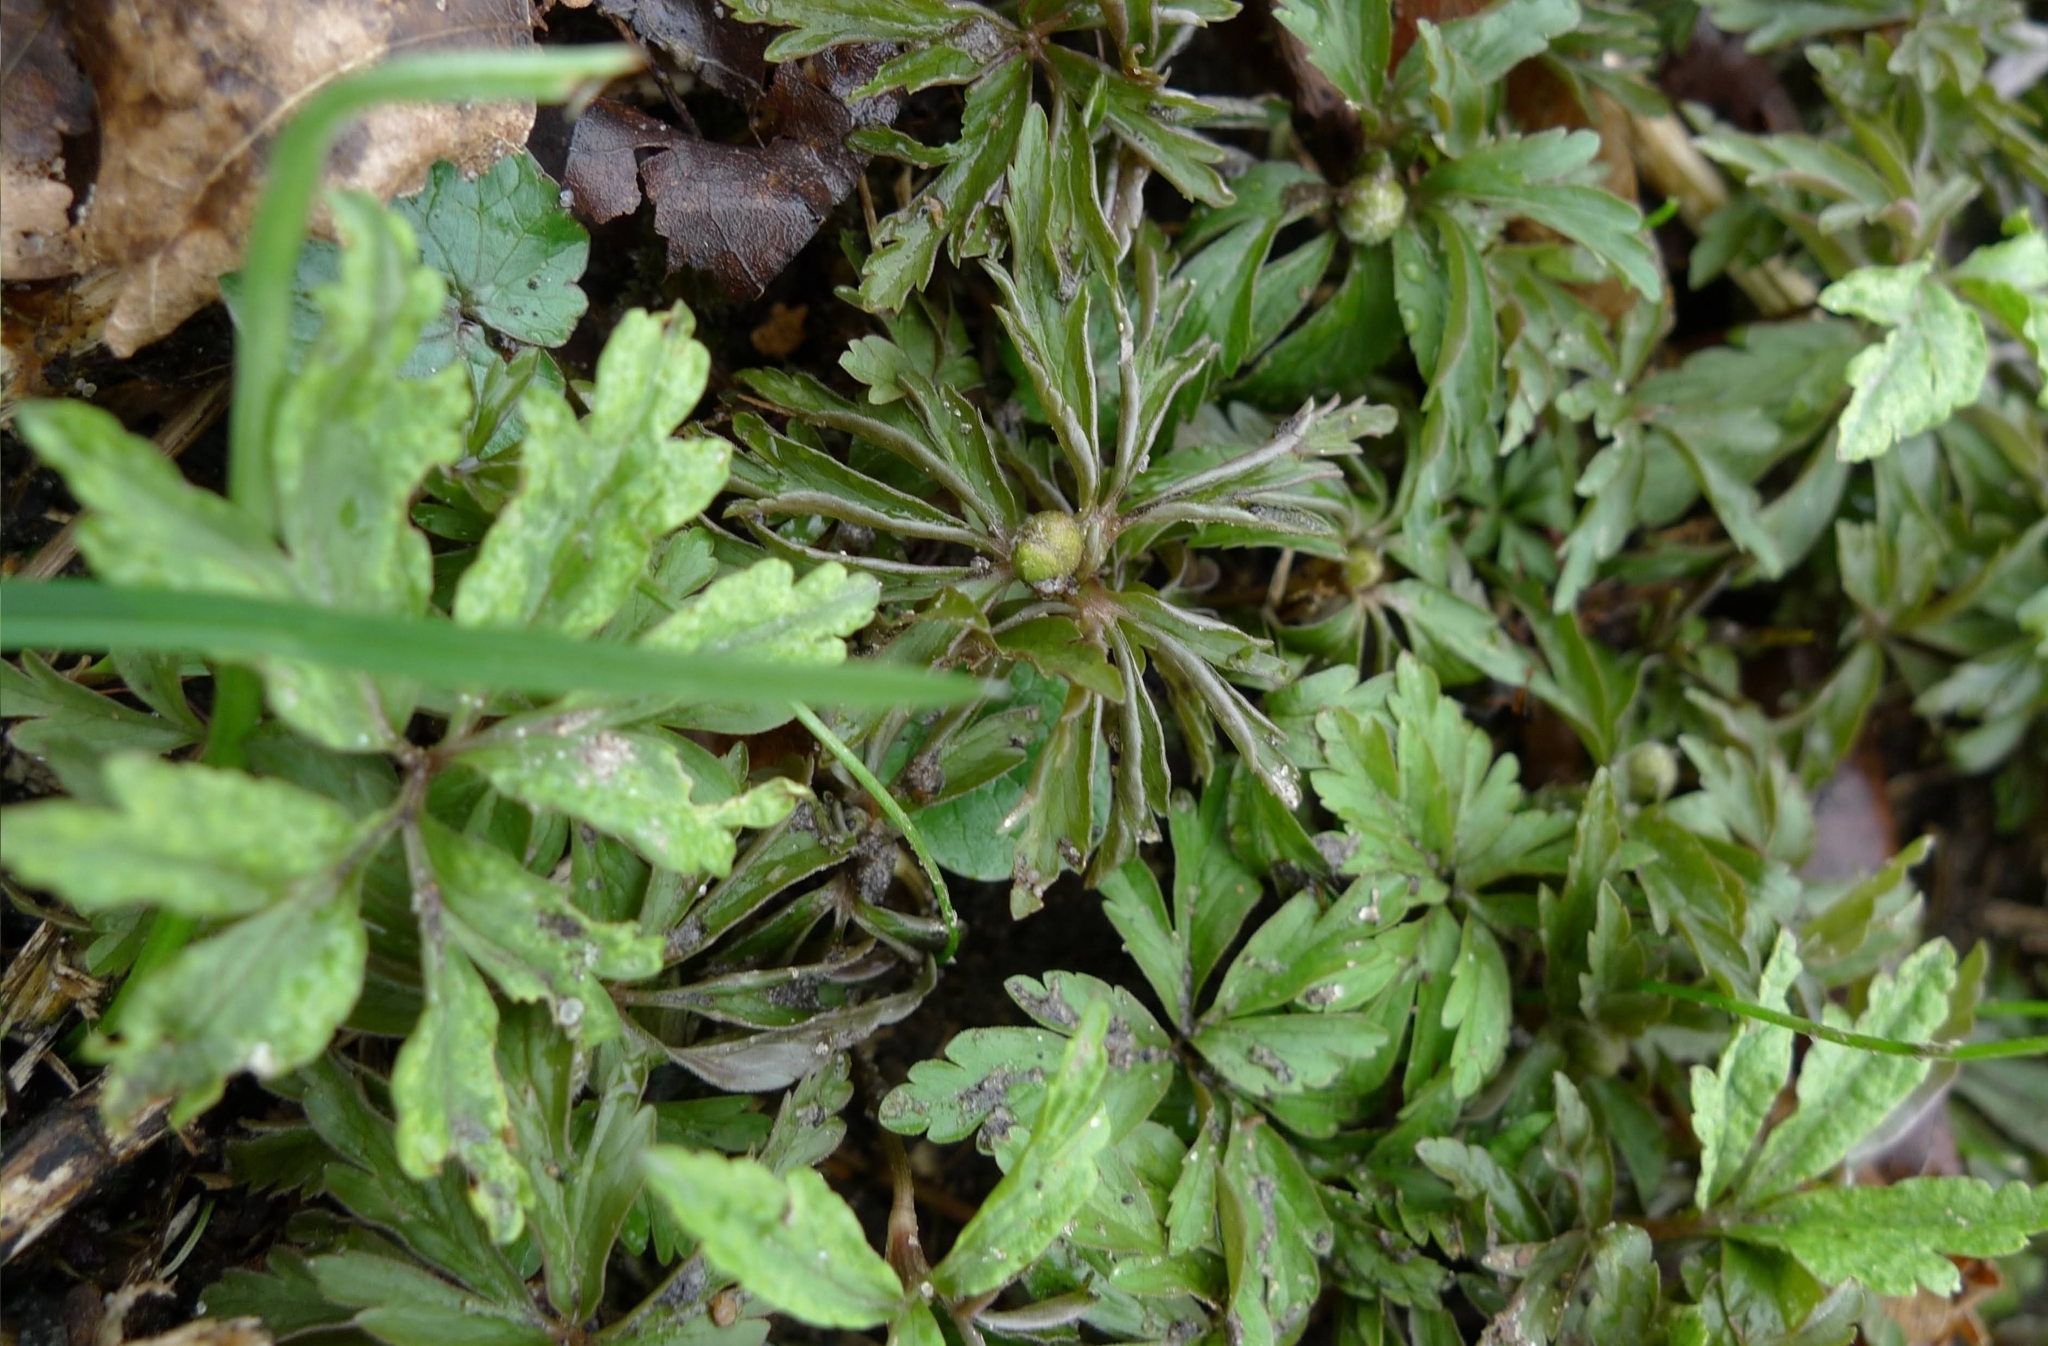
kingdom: Plantae
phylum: Tracheophyta
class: Magnoliopsida
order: Ranunculales
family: Ranunculaceae
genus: Anemone
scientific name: Anemone ranunculoides
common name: Yellow anemone
